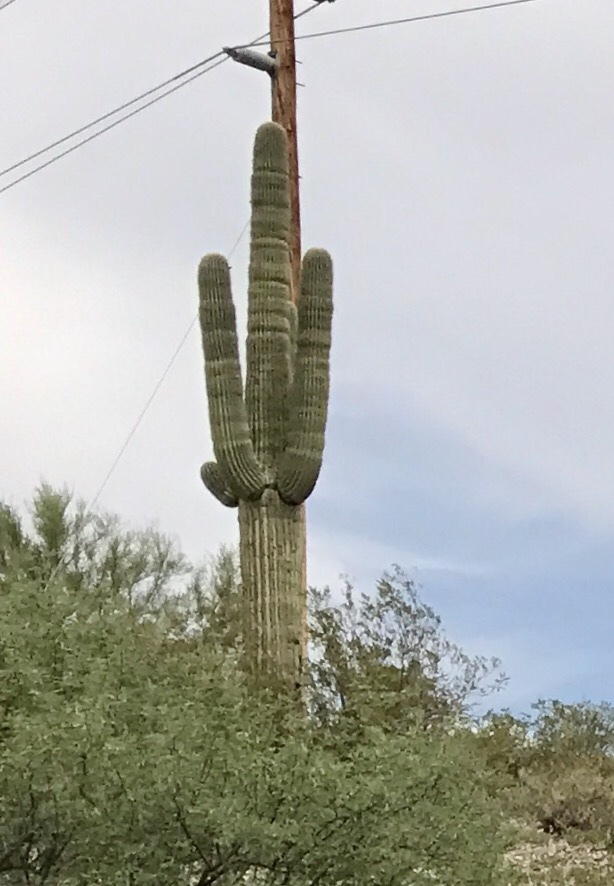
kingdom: Plantae
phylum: Tracheophyta
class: Magnoliopsida
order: Caryophyllales
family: Cactaceae
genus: Carnegiea
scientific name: Carnegiea gigantea
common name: Saguaro
